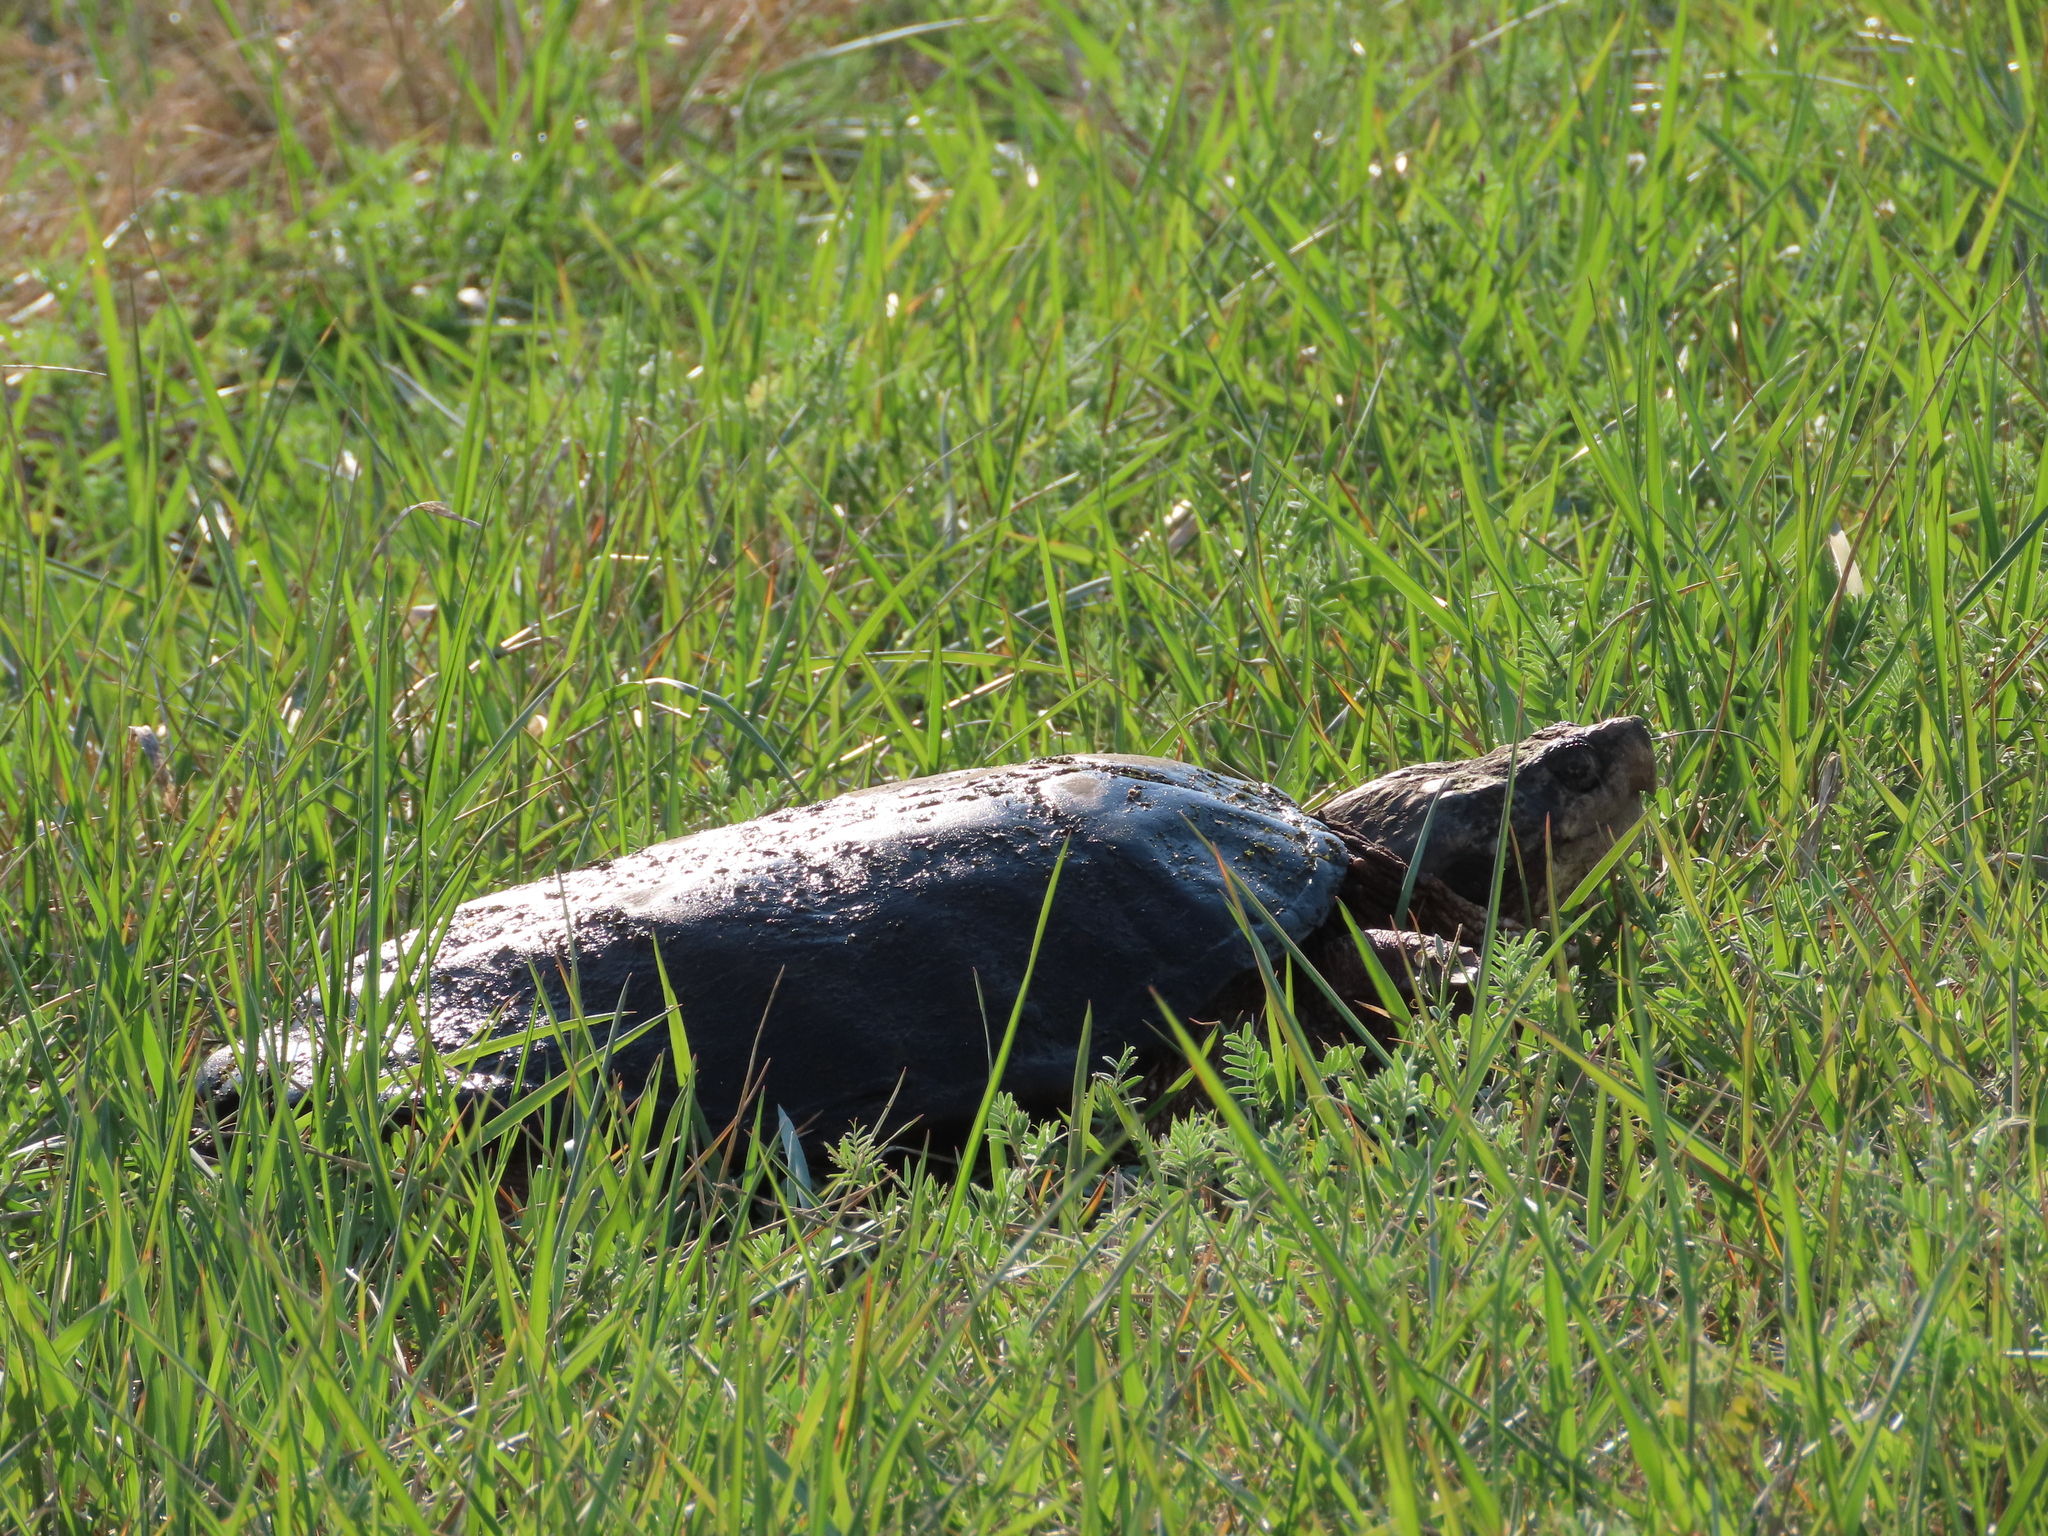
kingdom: Animalia
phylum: Chordata
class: Testudines
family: Chelydridae
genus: Chelydra
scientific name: Chelydra serpentina
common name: Common snapping turtle
